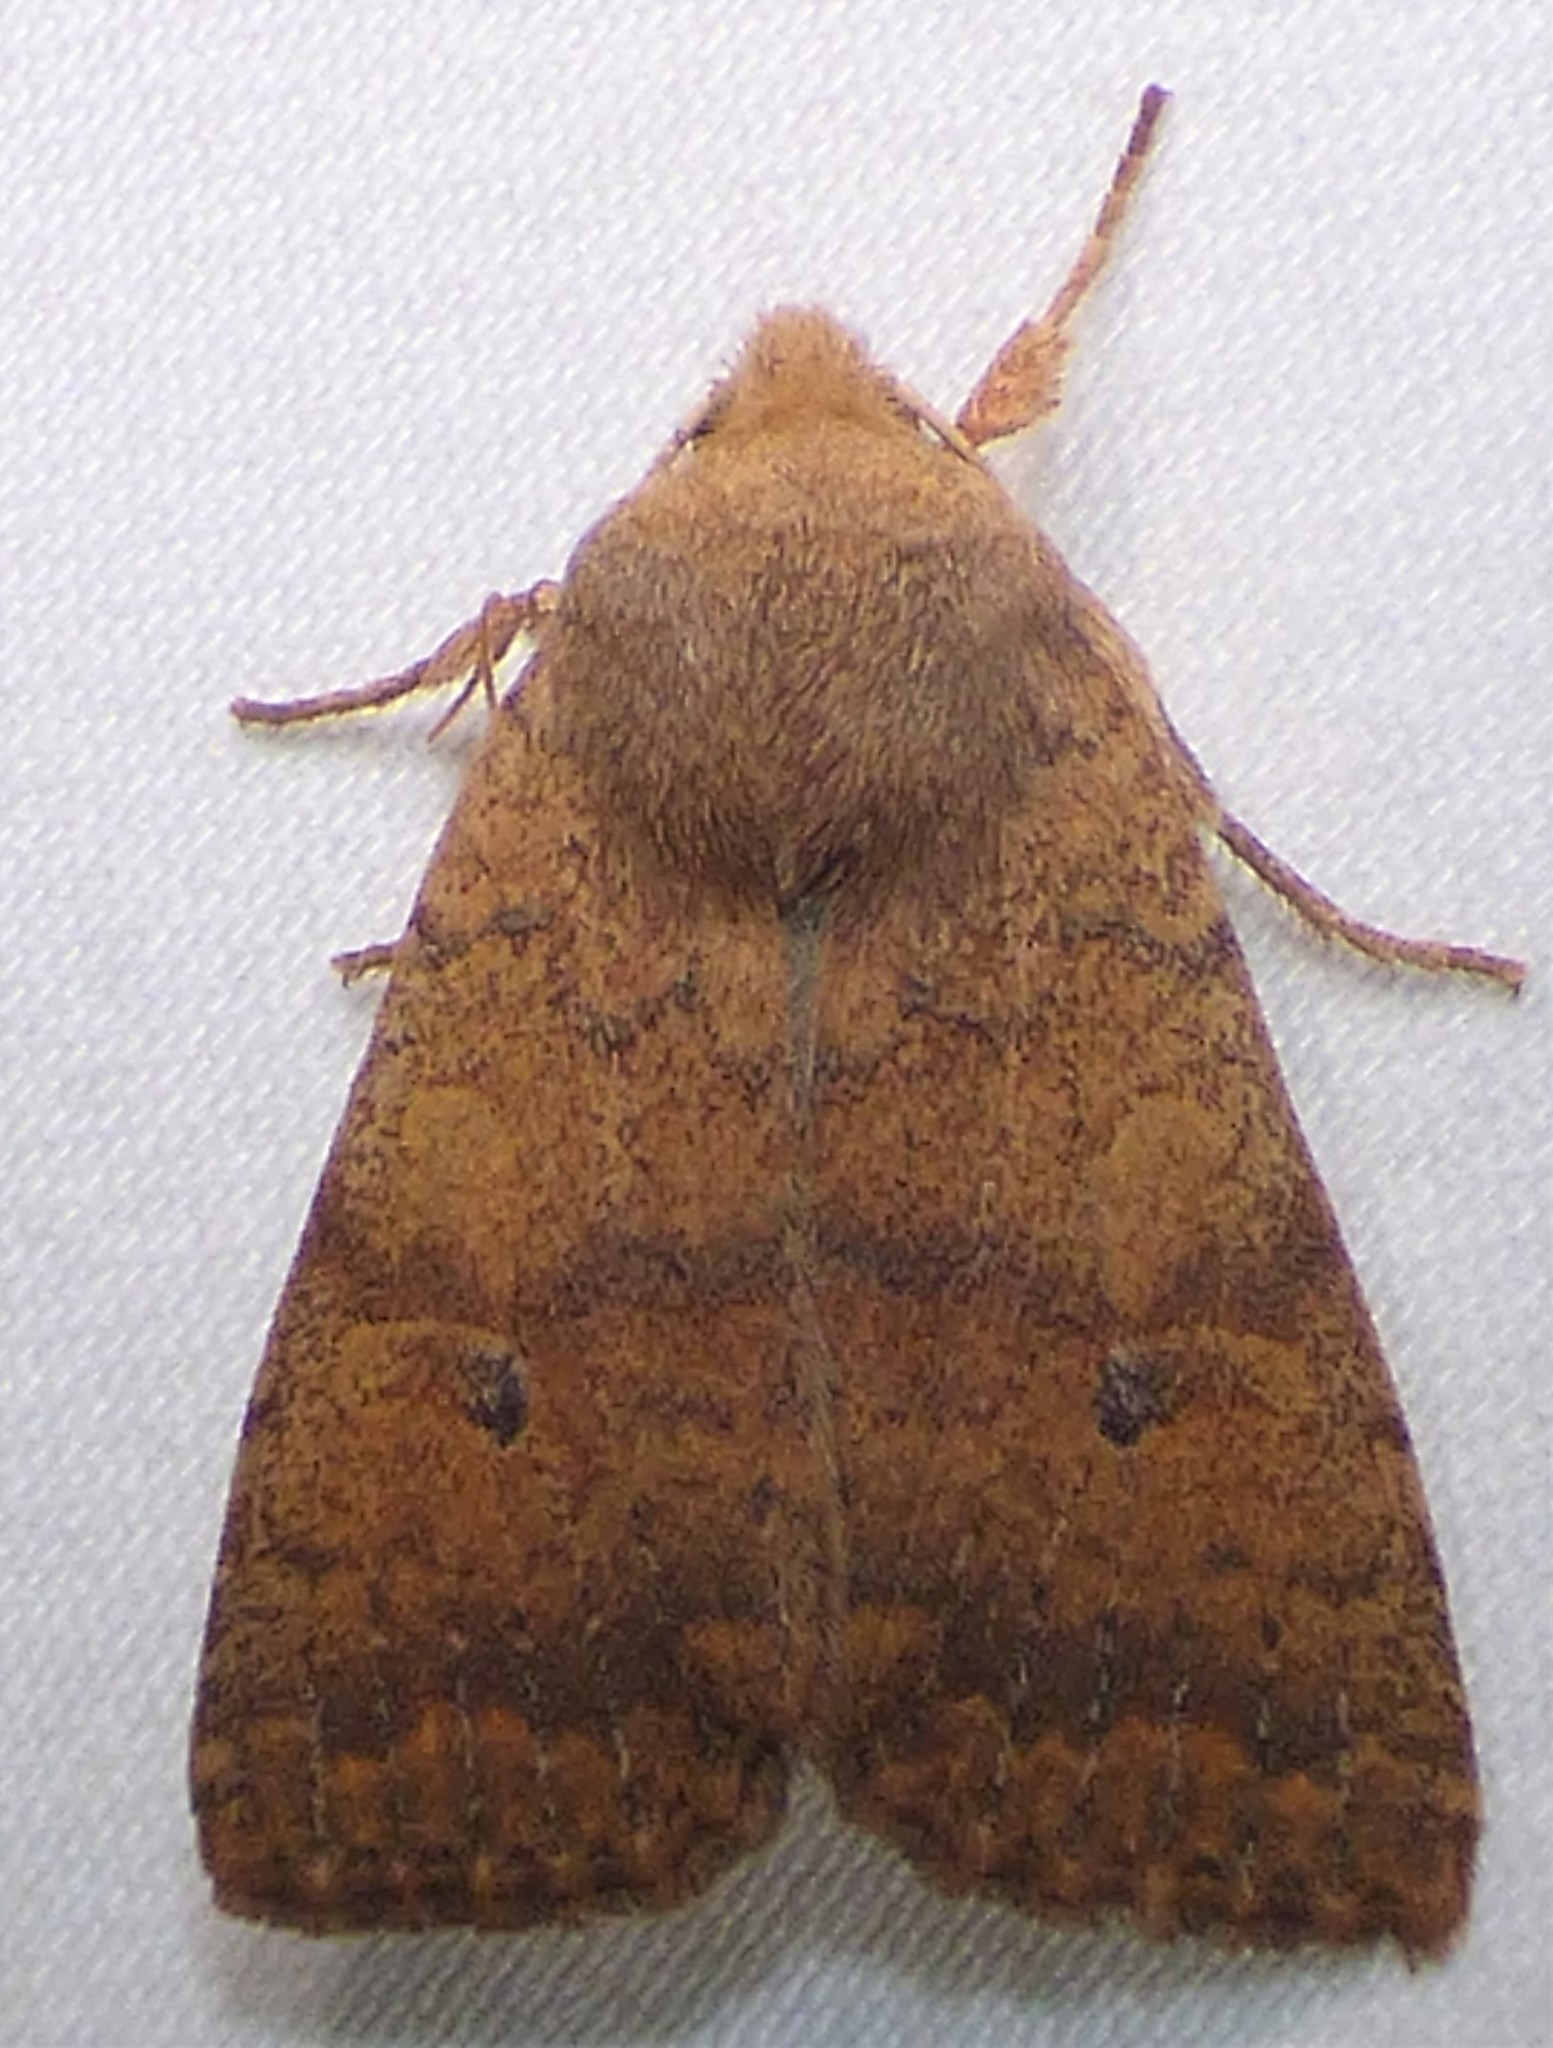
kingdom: Animalia
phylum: Arthropoda
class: Insecta
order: Lepidoptera
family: Noctuidae
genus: Agrochola
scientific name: Agrochola bicolorago
